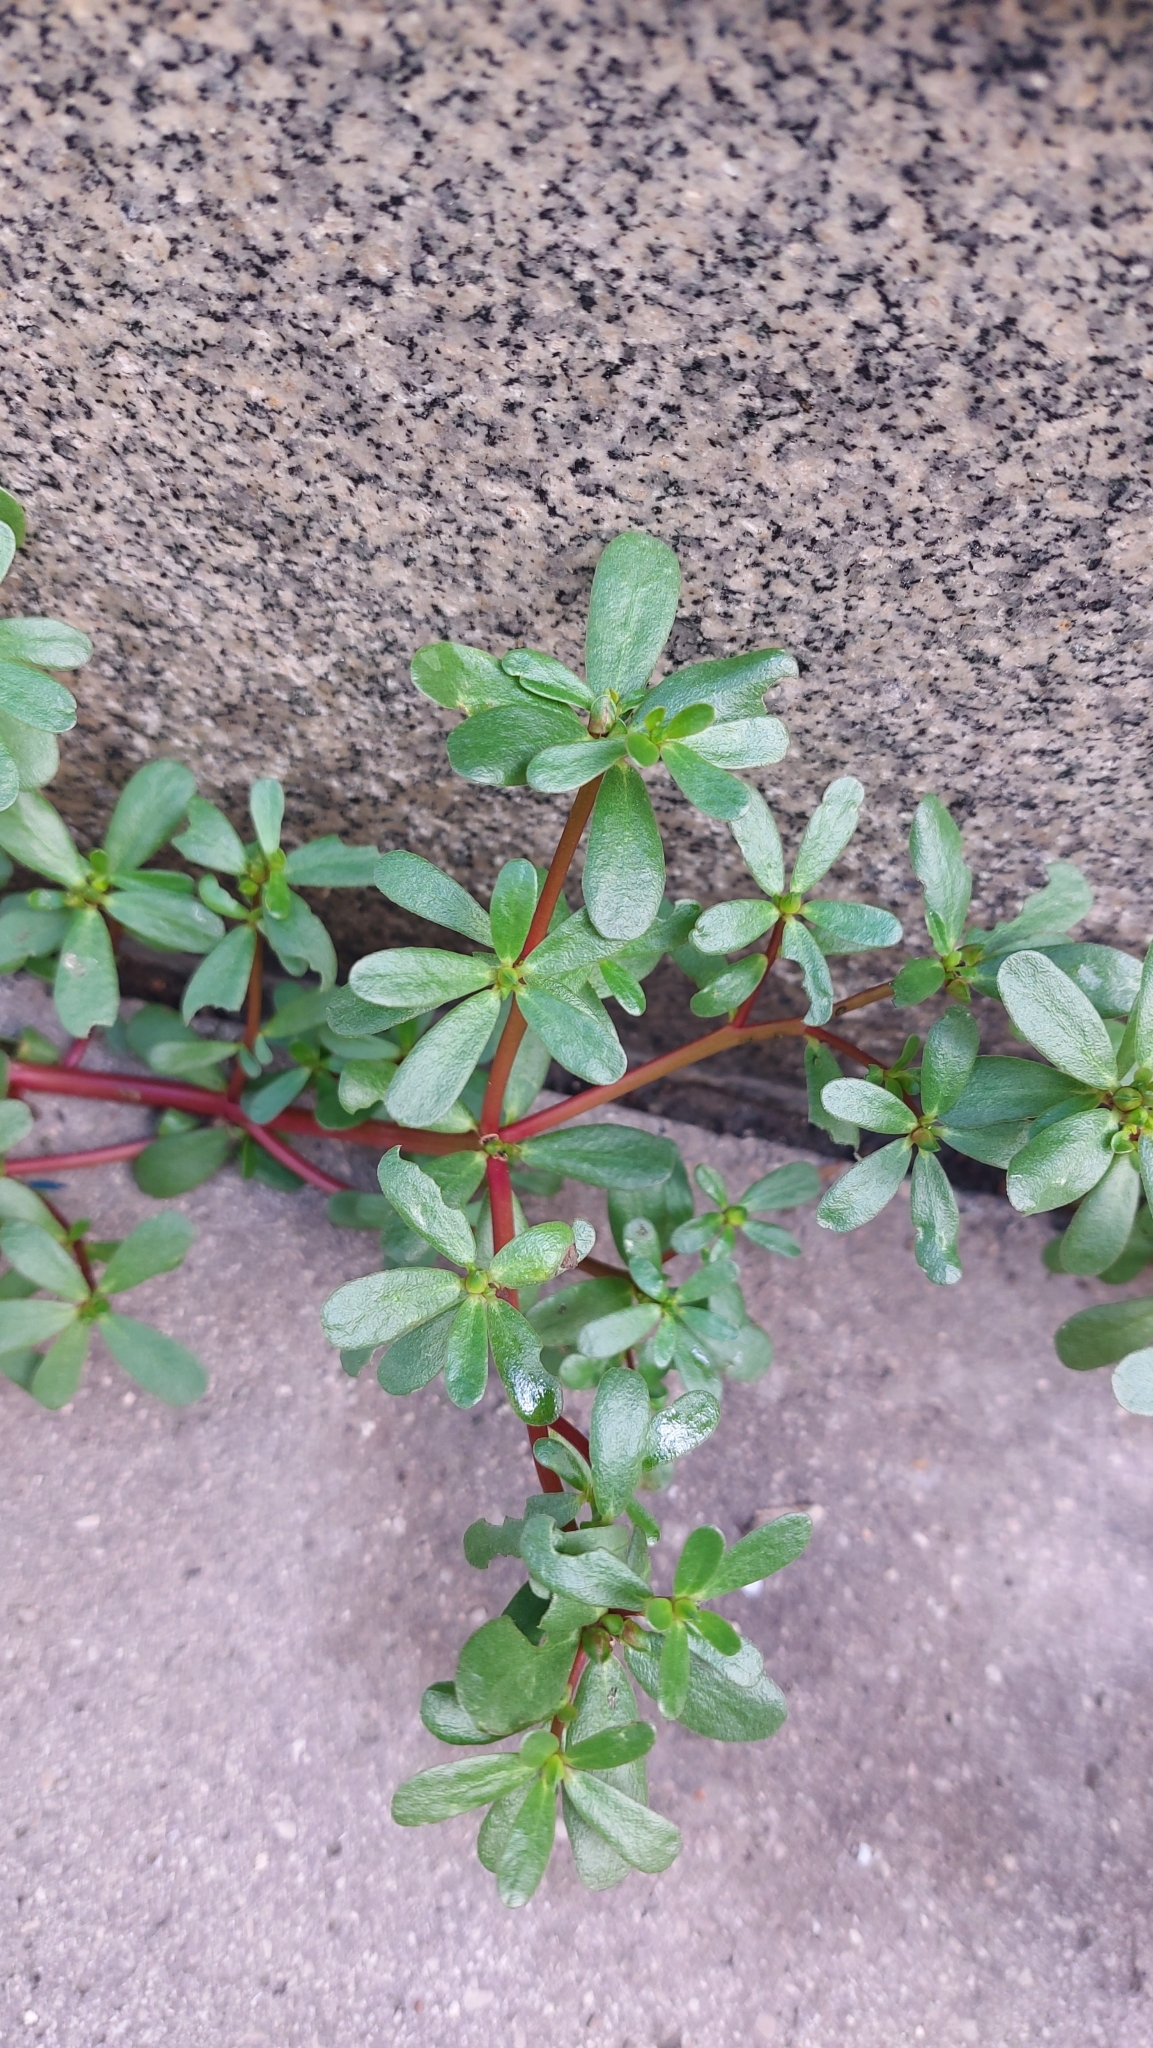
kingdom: Plantae
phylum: Tracheophyta
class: Magnoliopsida
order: Caryophyllales
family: Portulacaceae
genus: Portulaca
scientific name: Portulaca oleracea
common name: Common purslane
